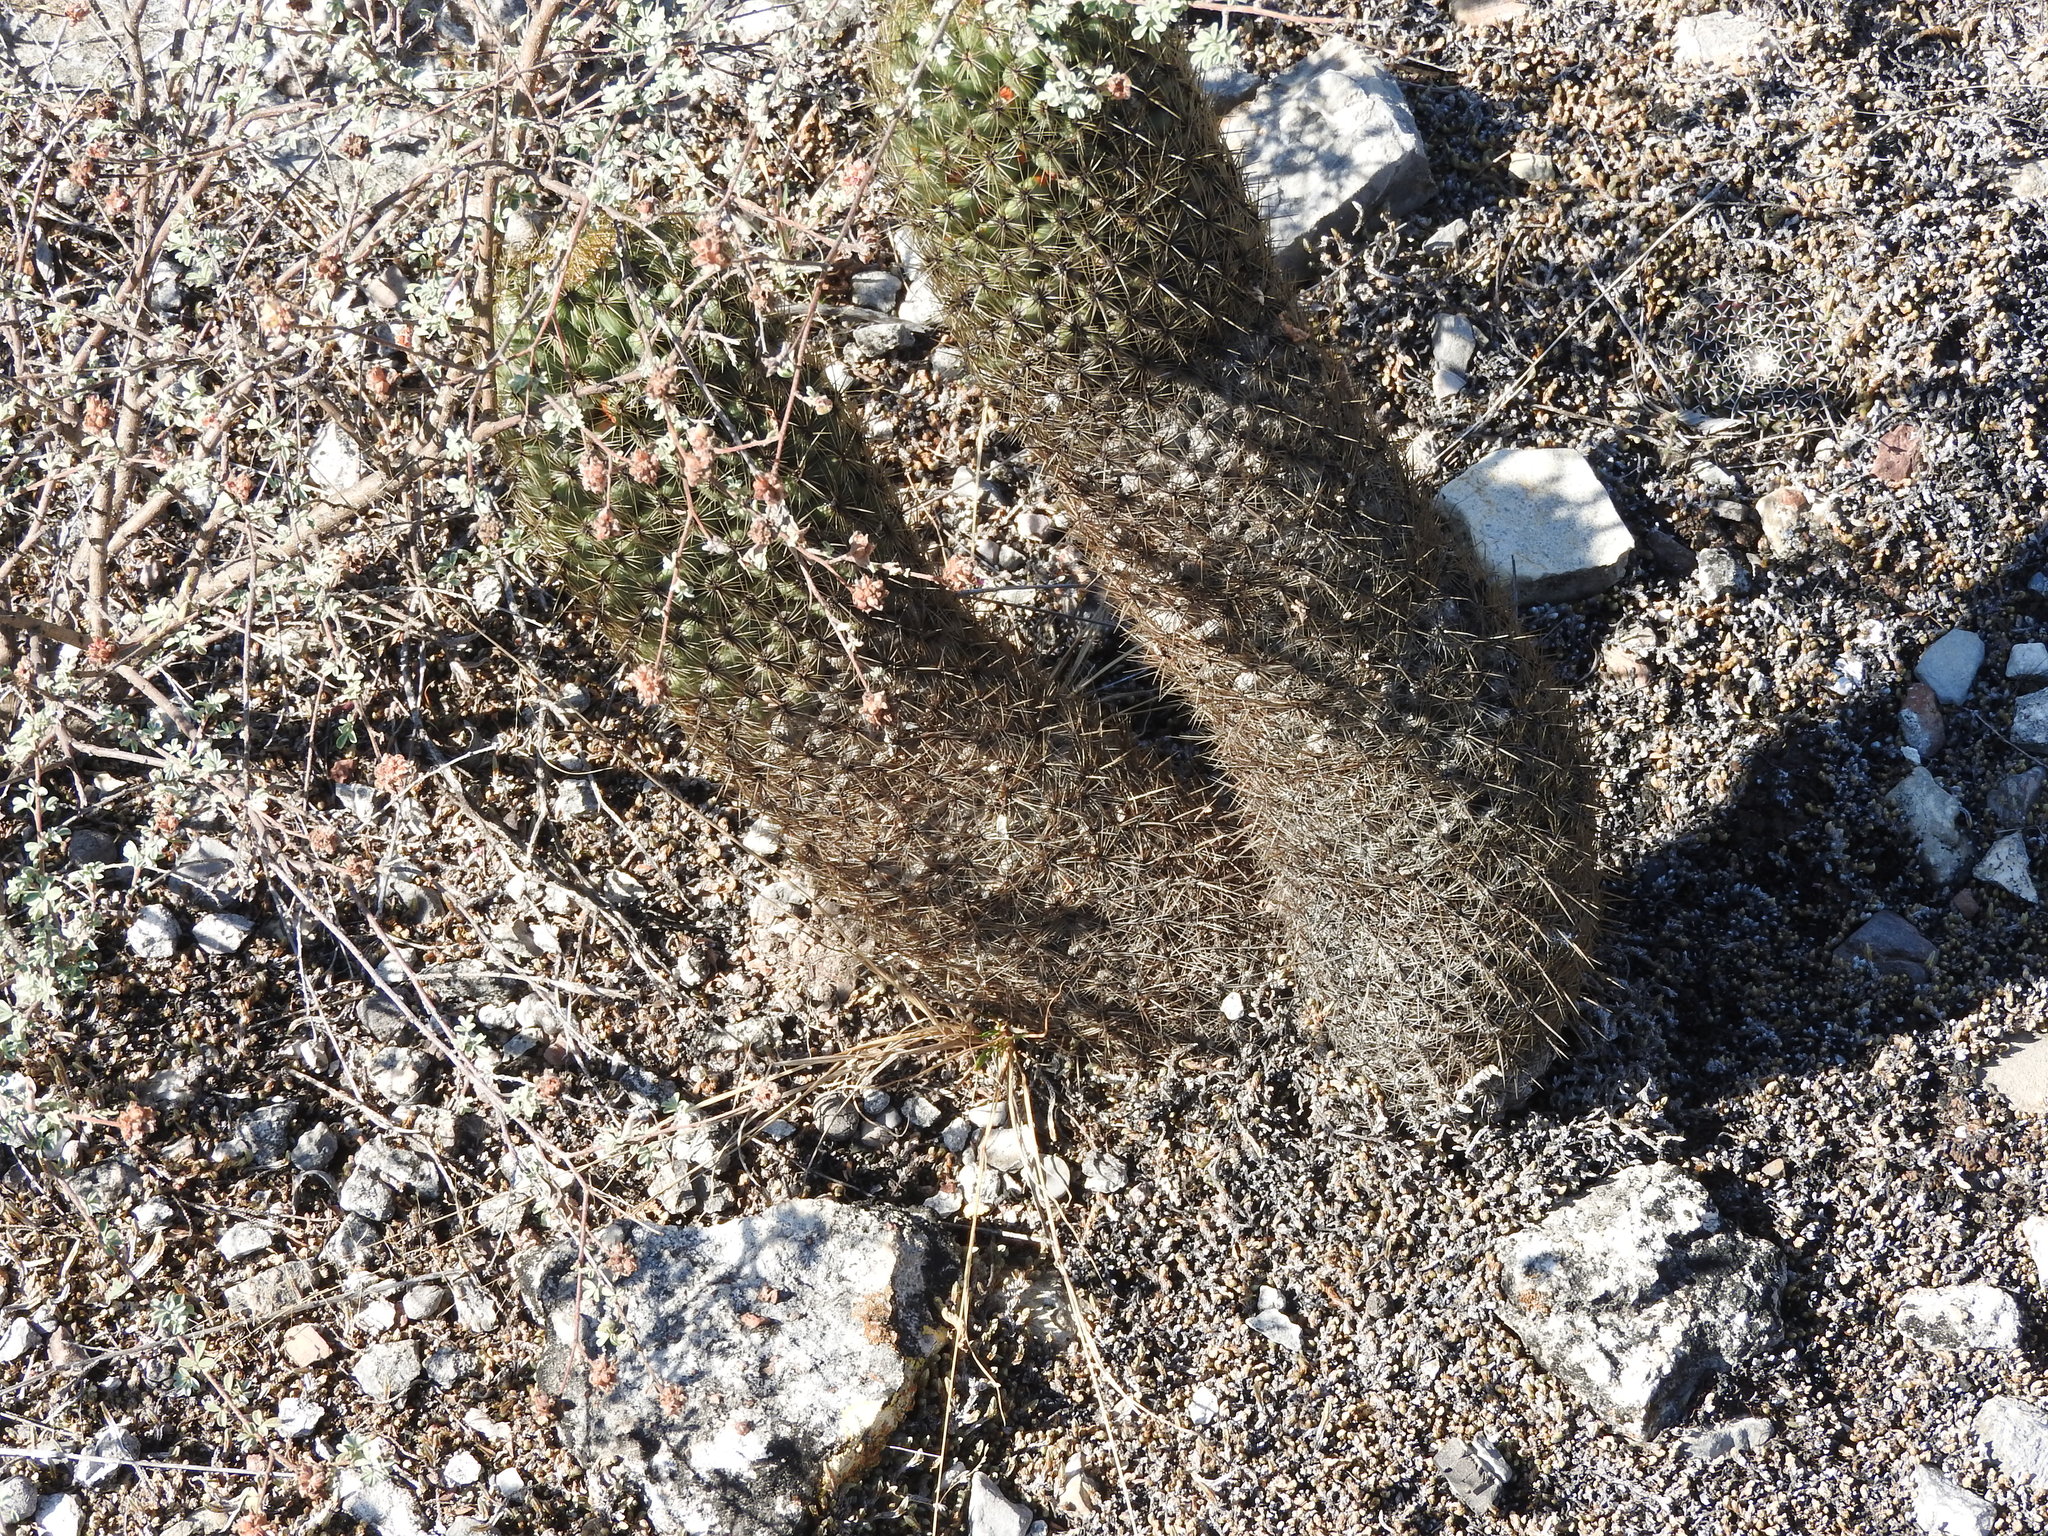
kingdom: Plantae
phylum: Tracheophyta
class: Magnoliopsida
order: Caryophyllales
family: Cactaceae
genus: Coryphantha
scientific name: Coryphantha erecta
